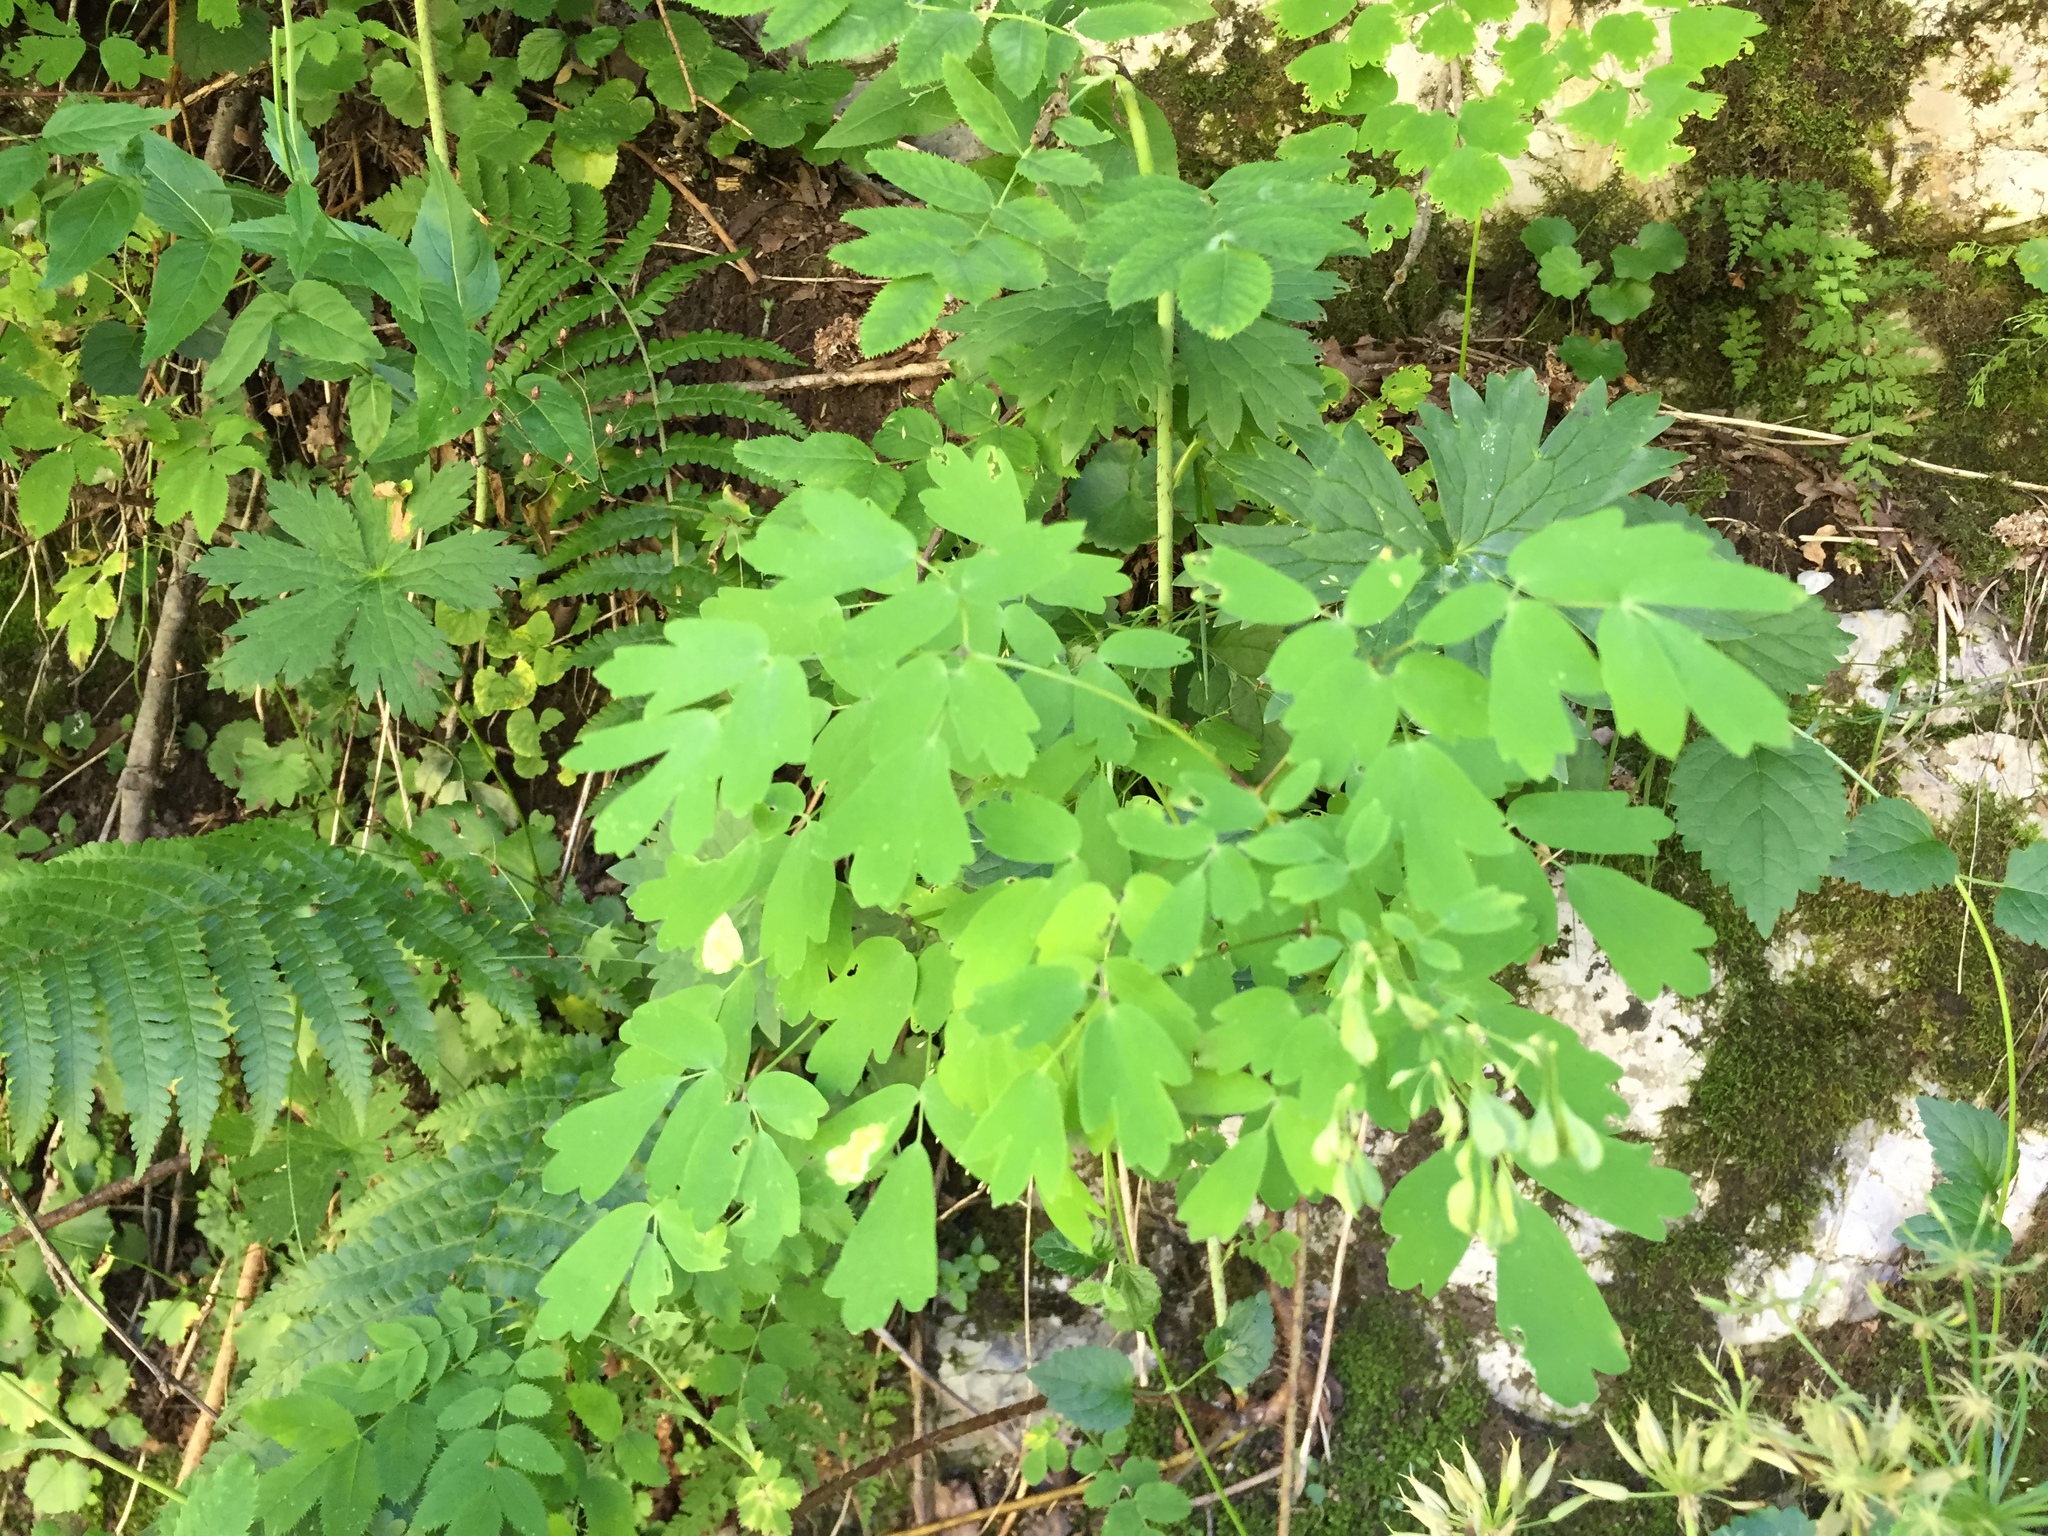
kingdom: Plantae
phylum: Tracheophyta
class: Magnoliopsida
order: Ranunculales
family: Ranunculaceae
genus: Thalictrum
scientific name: Thalictrum aquilegiifolium
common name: French meadow-rue
